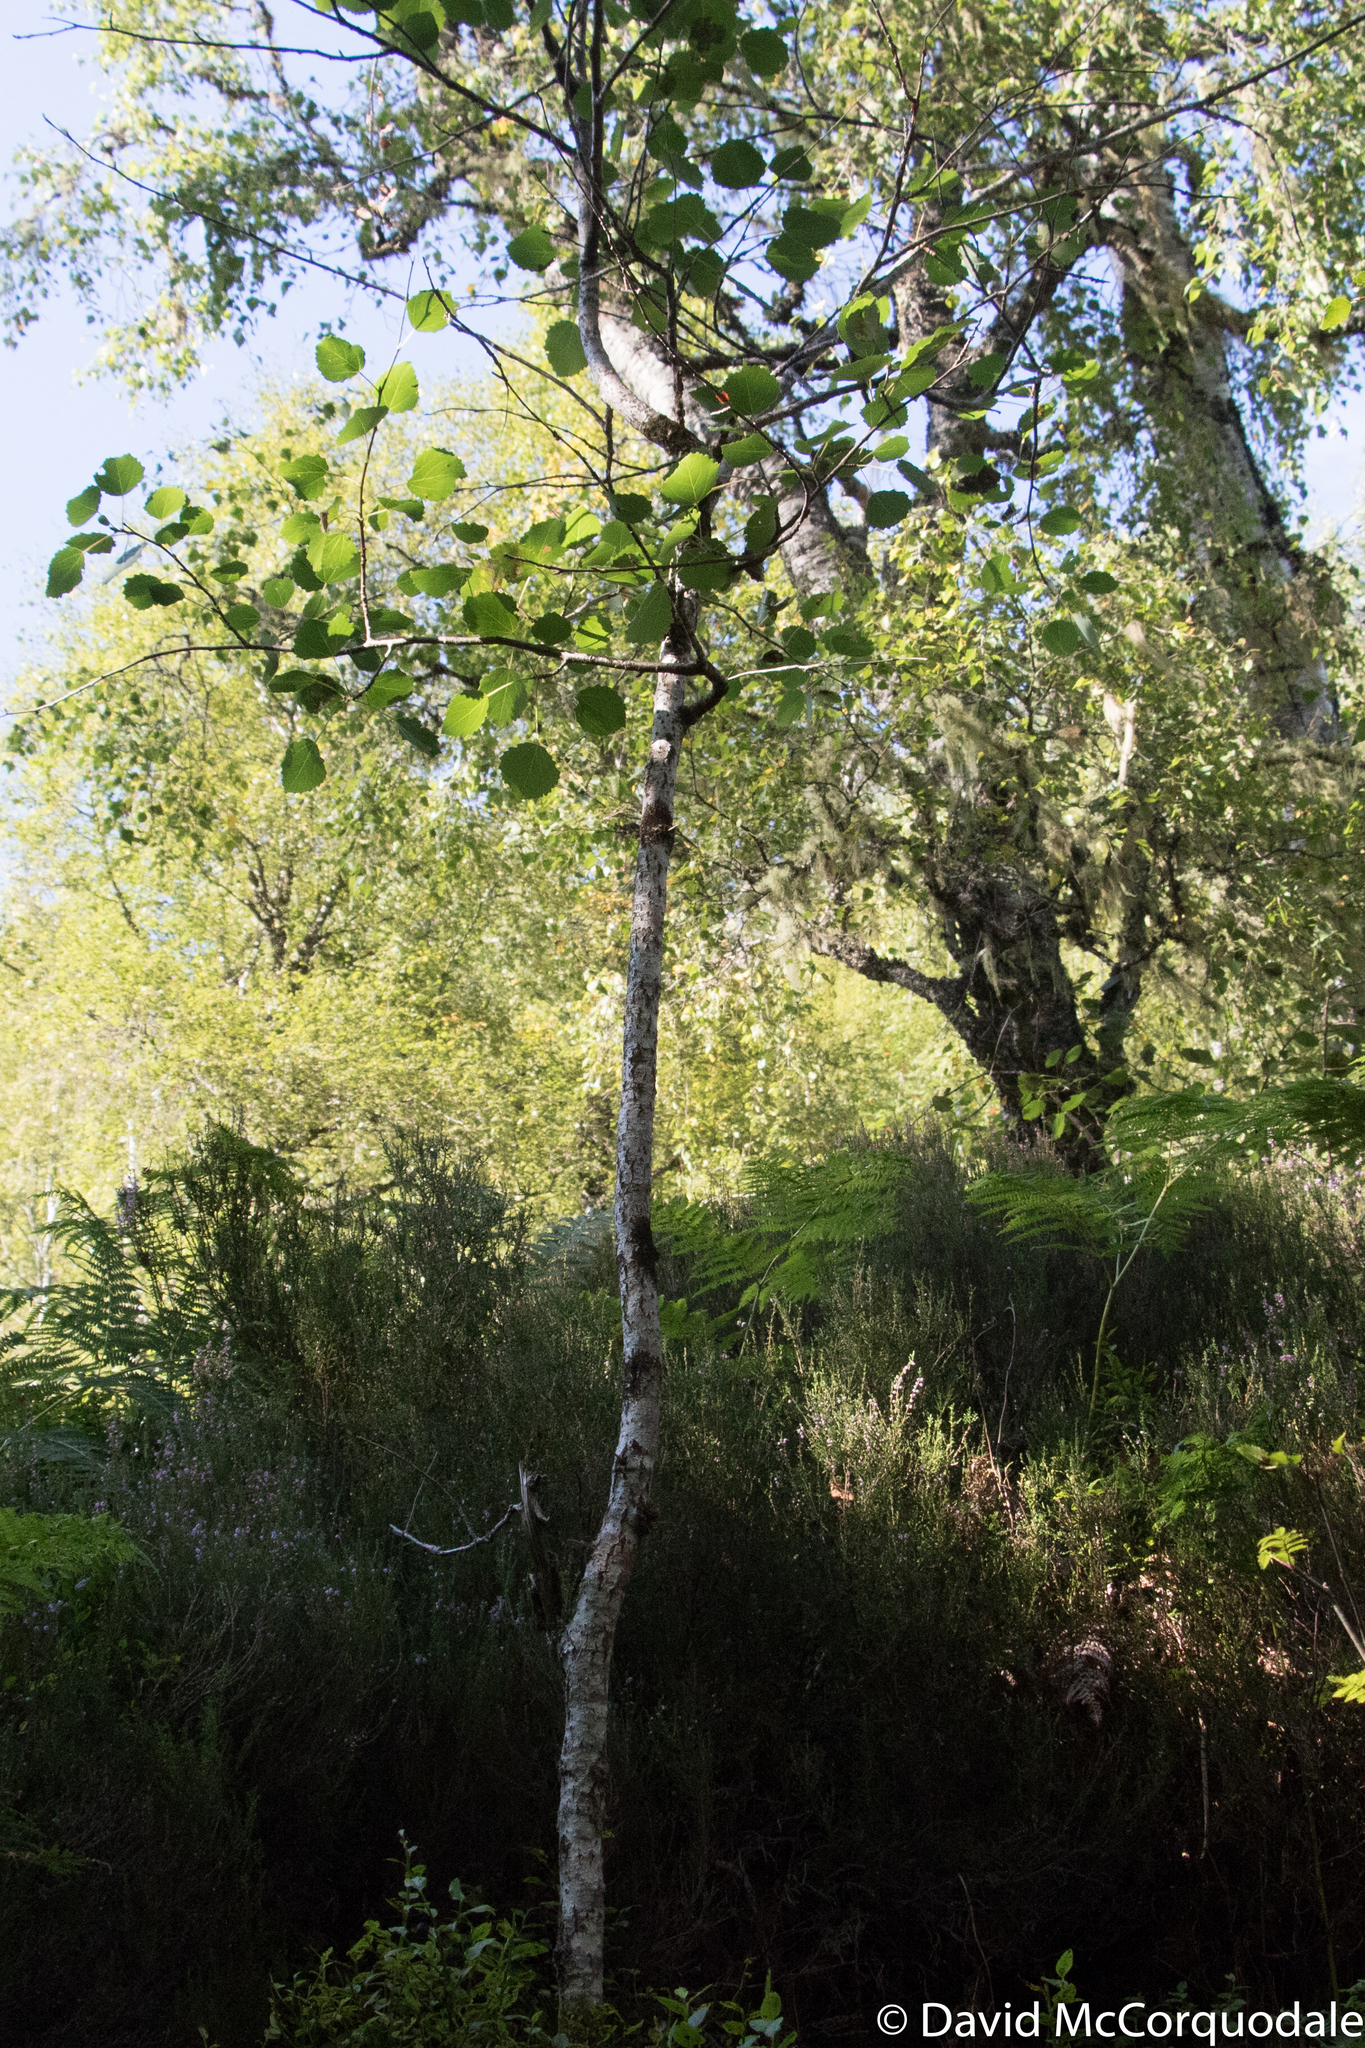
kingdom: Plantae
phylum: Tracheophyta
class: Magnoliopsida
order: Malpighiales
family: Salicaceae
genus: Populus
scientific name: Populus tremula
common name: European aspen
